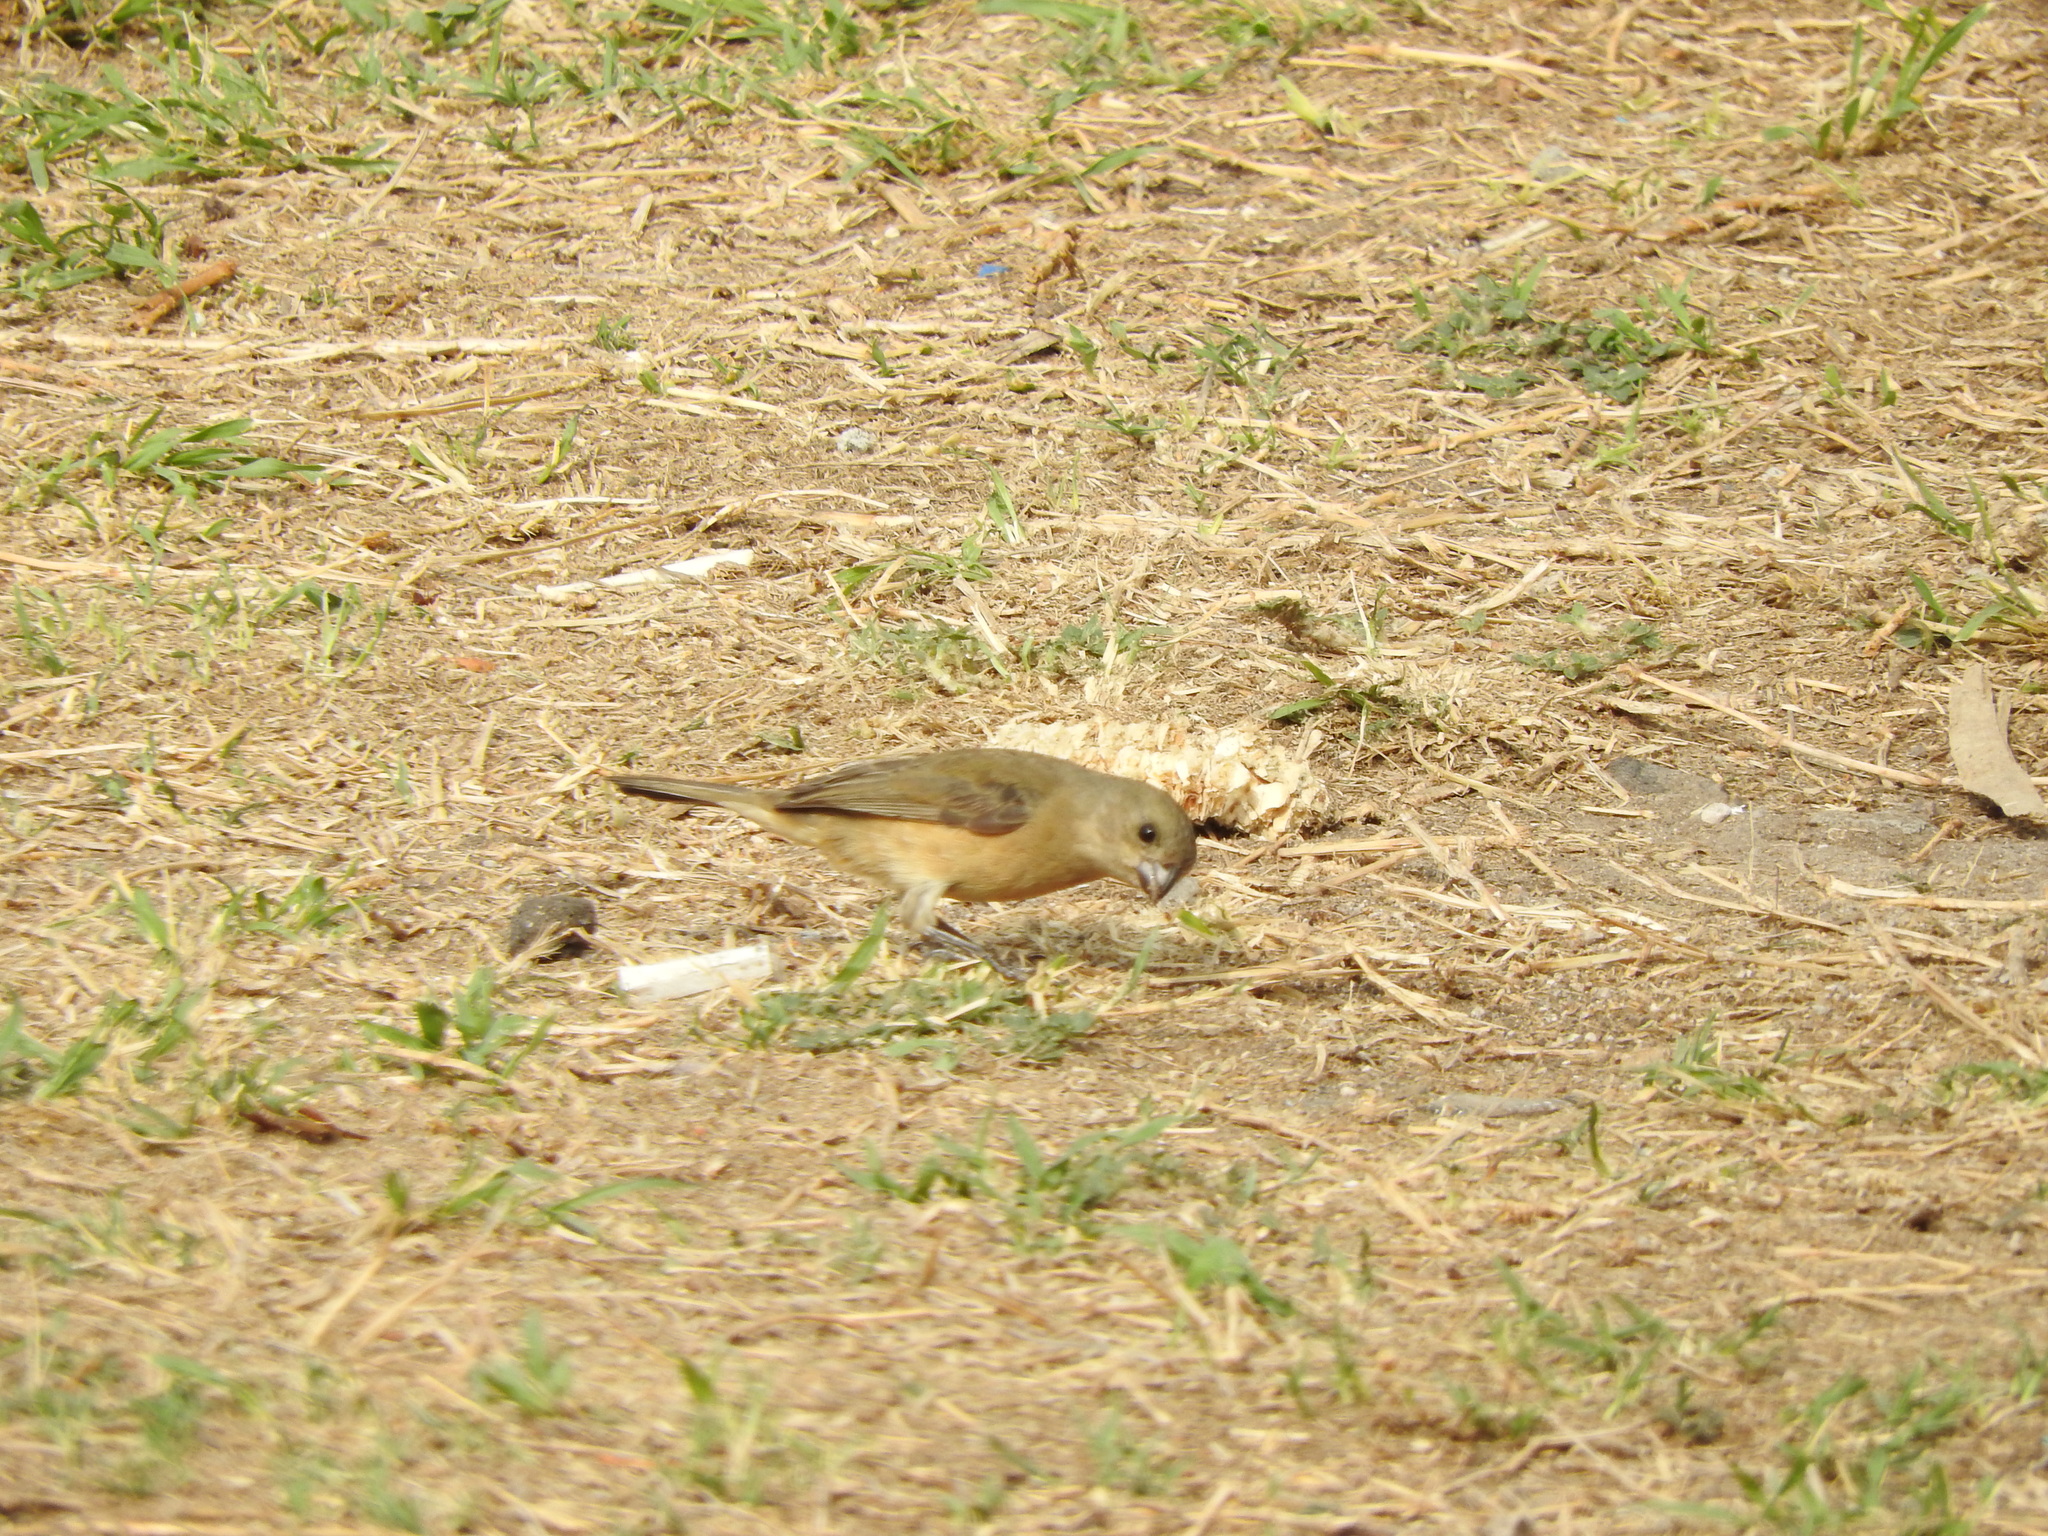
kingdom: Animalia
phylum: Chordata
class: Aves
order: Passeriformes
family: Thraupidae
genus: Sporophila
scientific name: Sporophila torqueola
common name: White-collared seedeater
